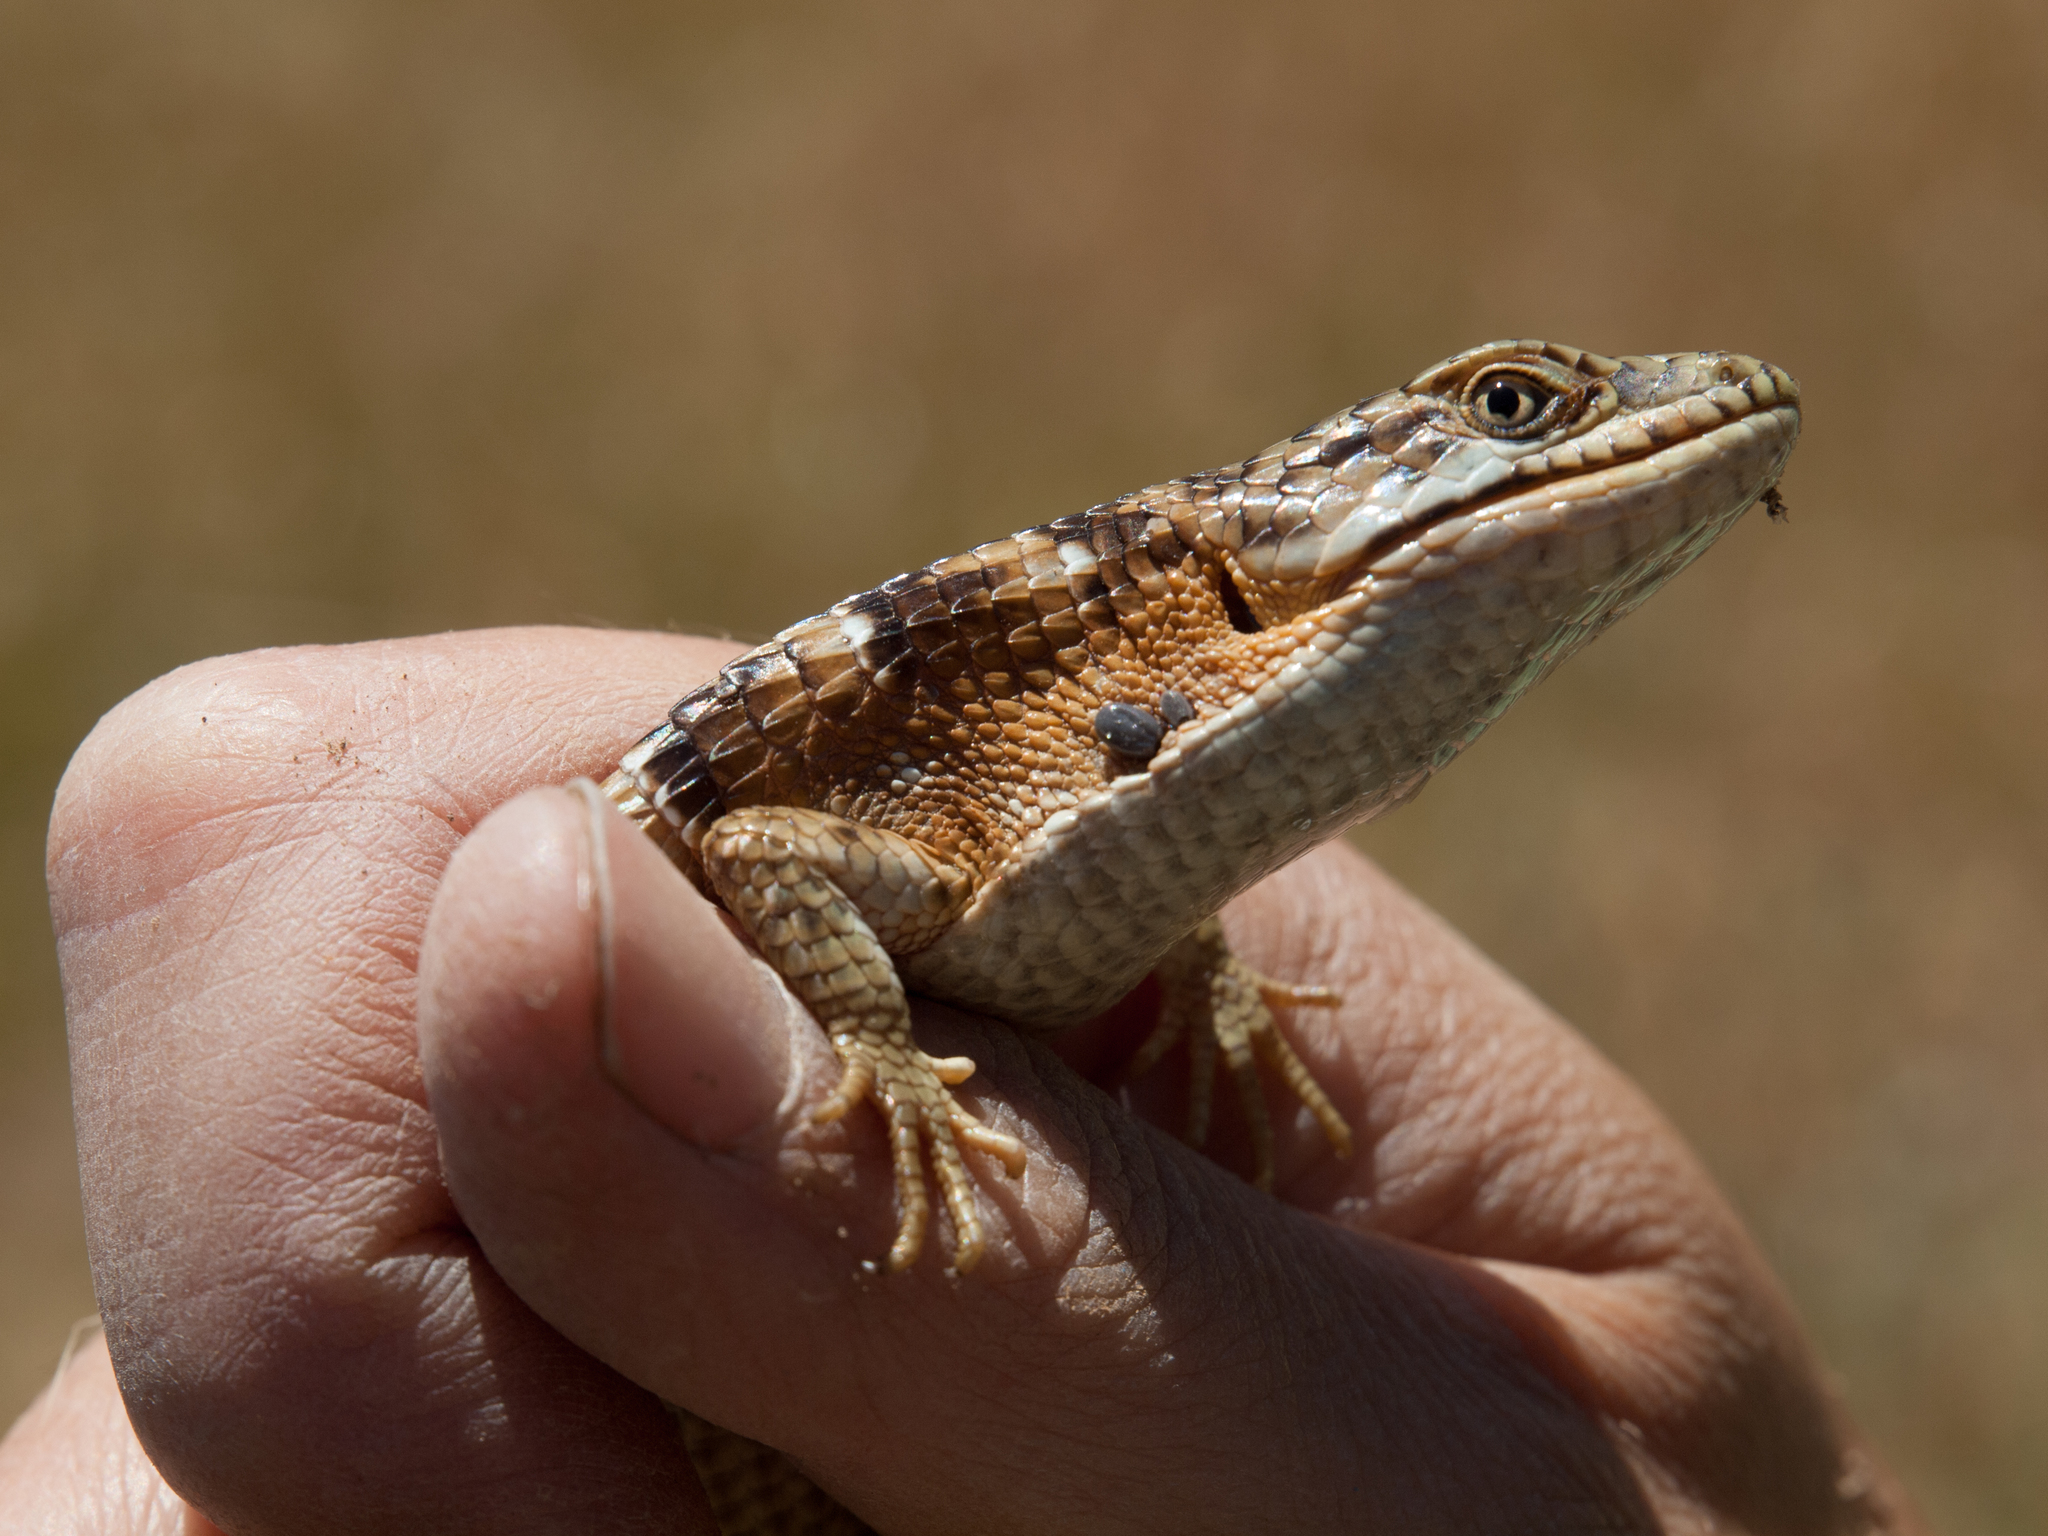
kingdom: Animalia
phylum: Chordata
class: Squamata
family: Anguidae
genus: Elgaria
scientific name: Elgaria multicarinata
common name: Southern alligator lizard
